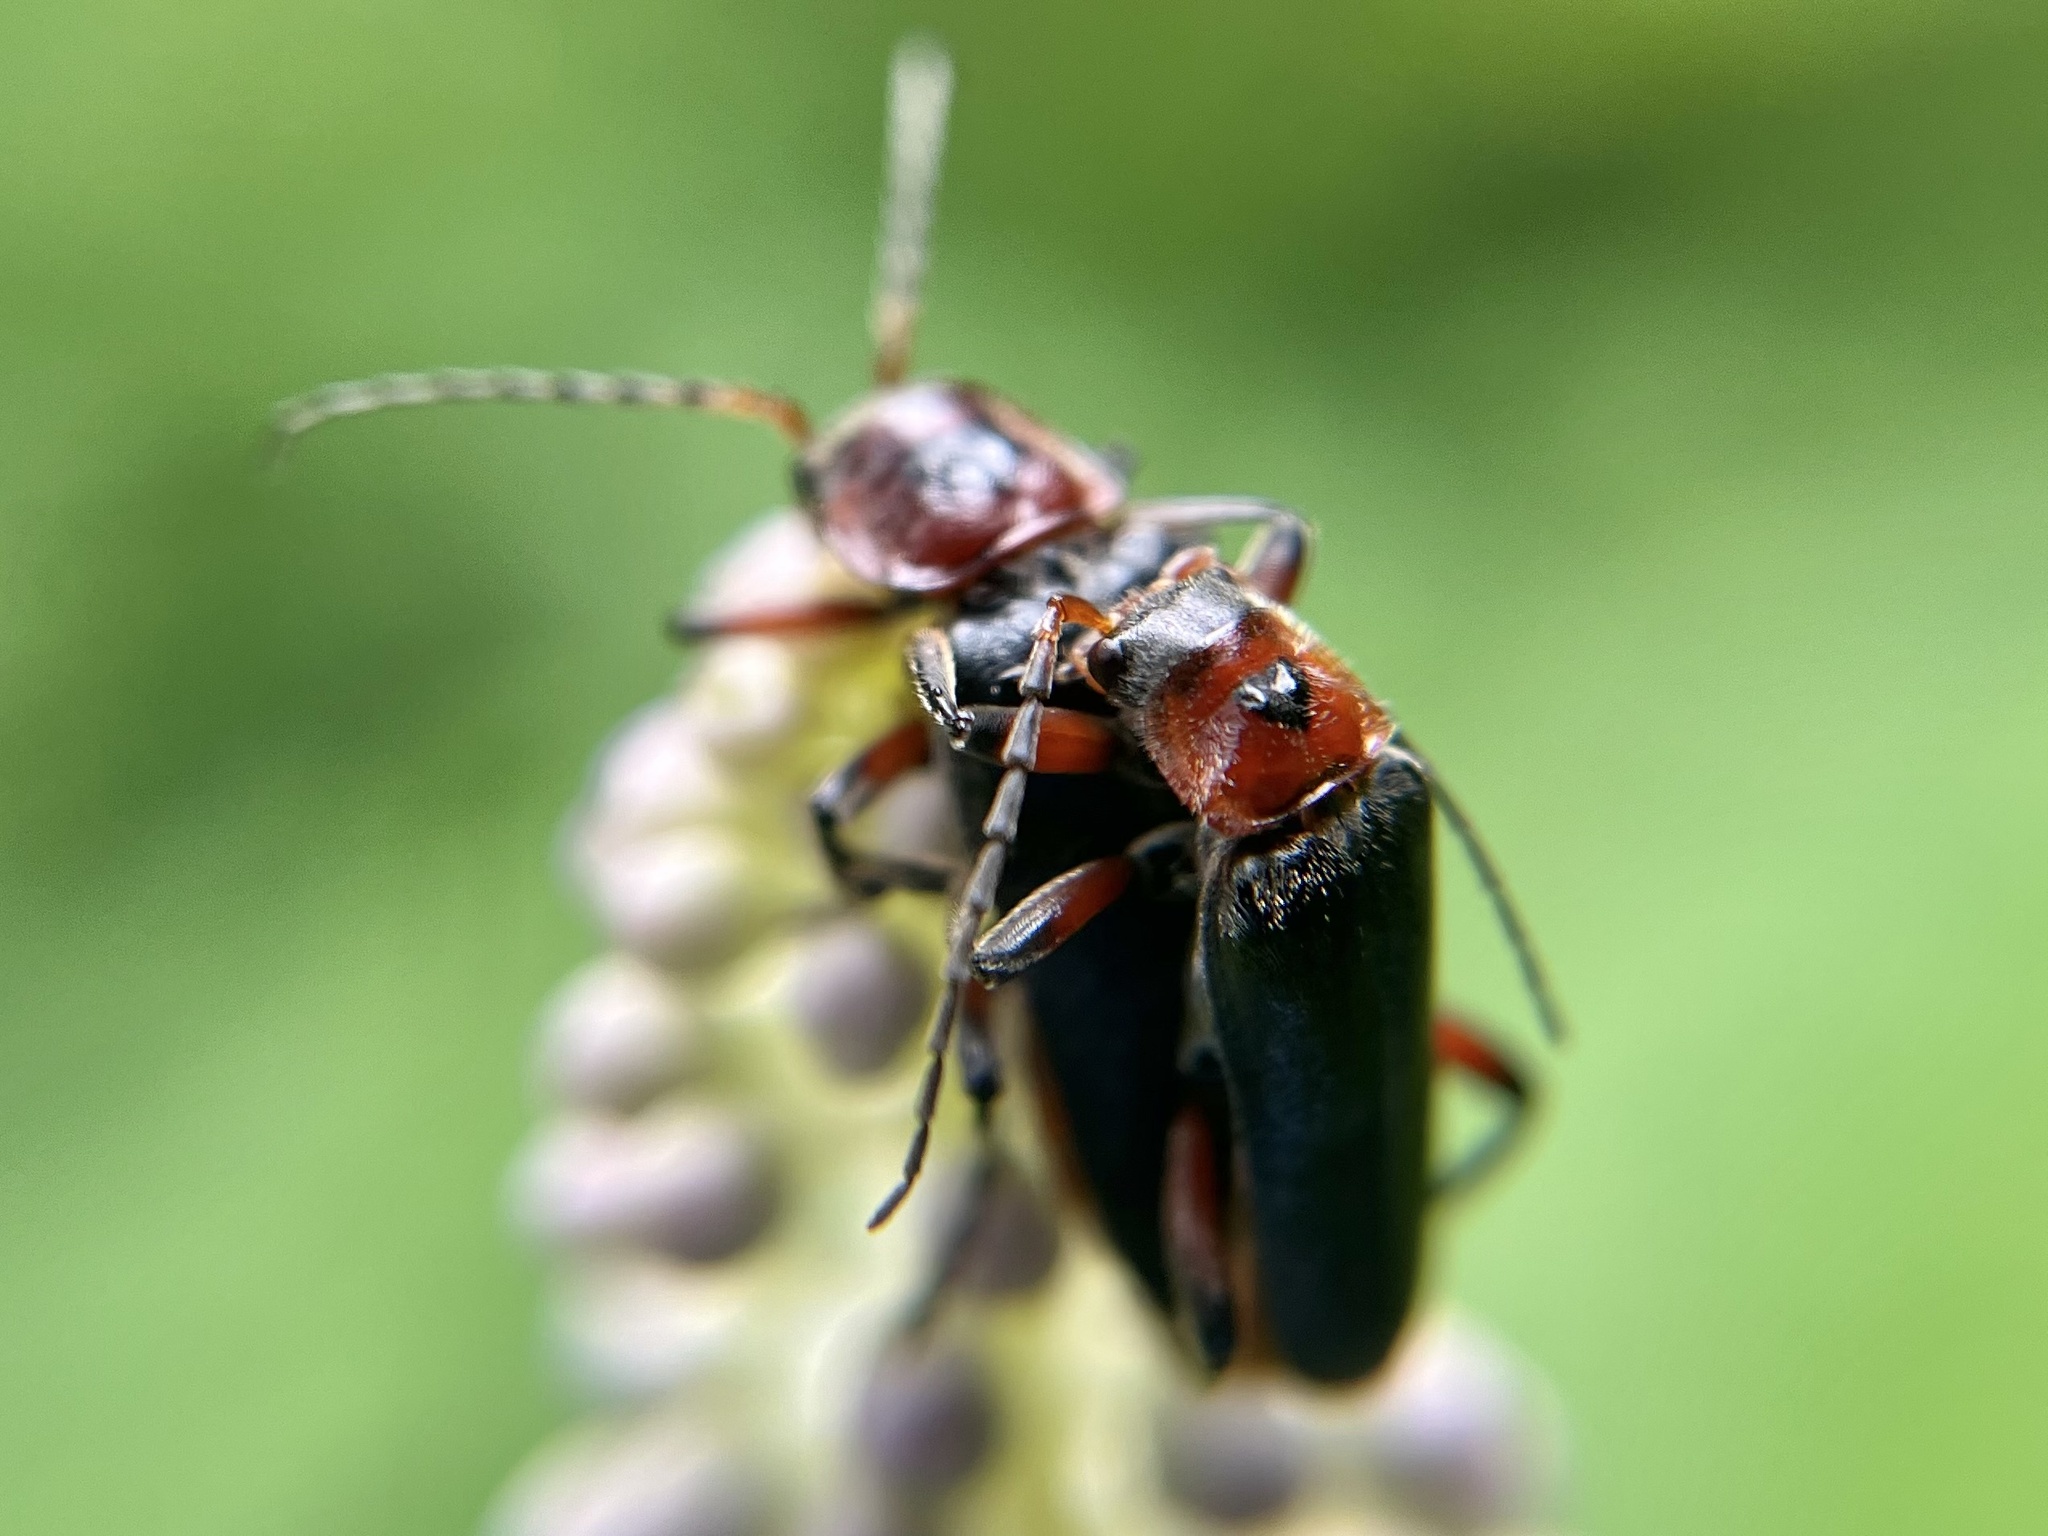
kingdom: Animalia
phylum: Arthropoda
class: Insecta
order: Coleoptera
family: Cantharidae
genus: Cantharis
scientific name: Cantharis rustica
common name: Soldier beetle
